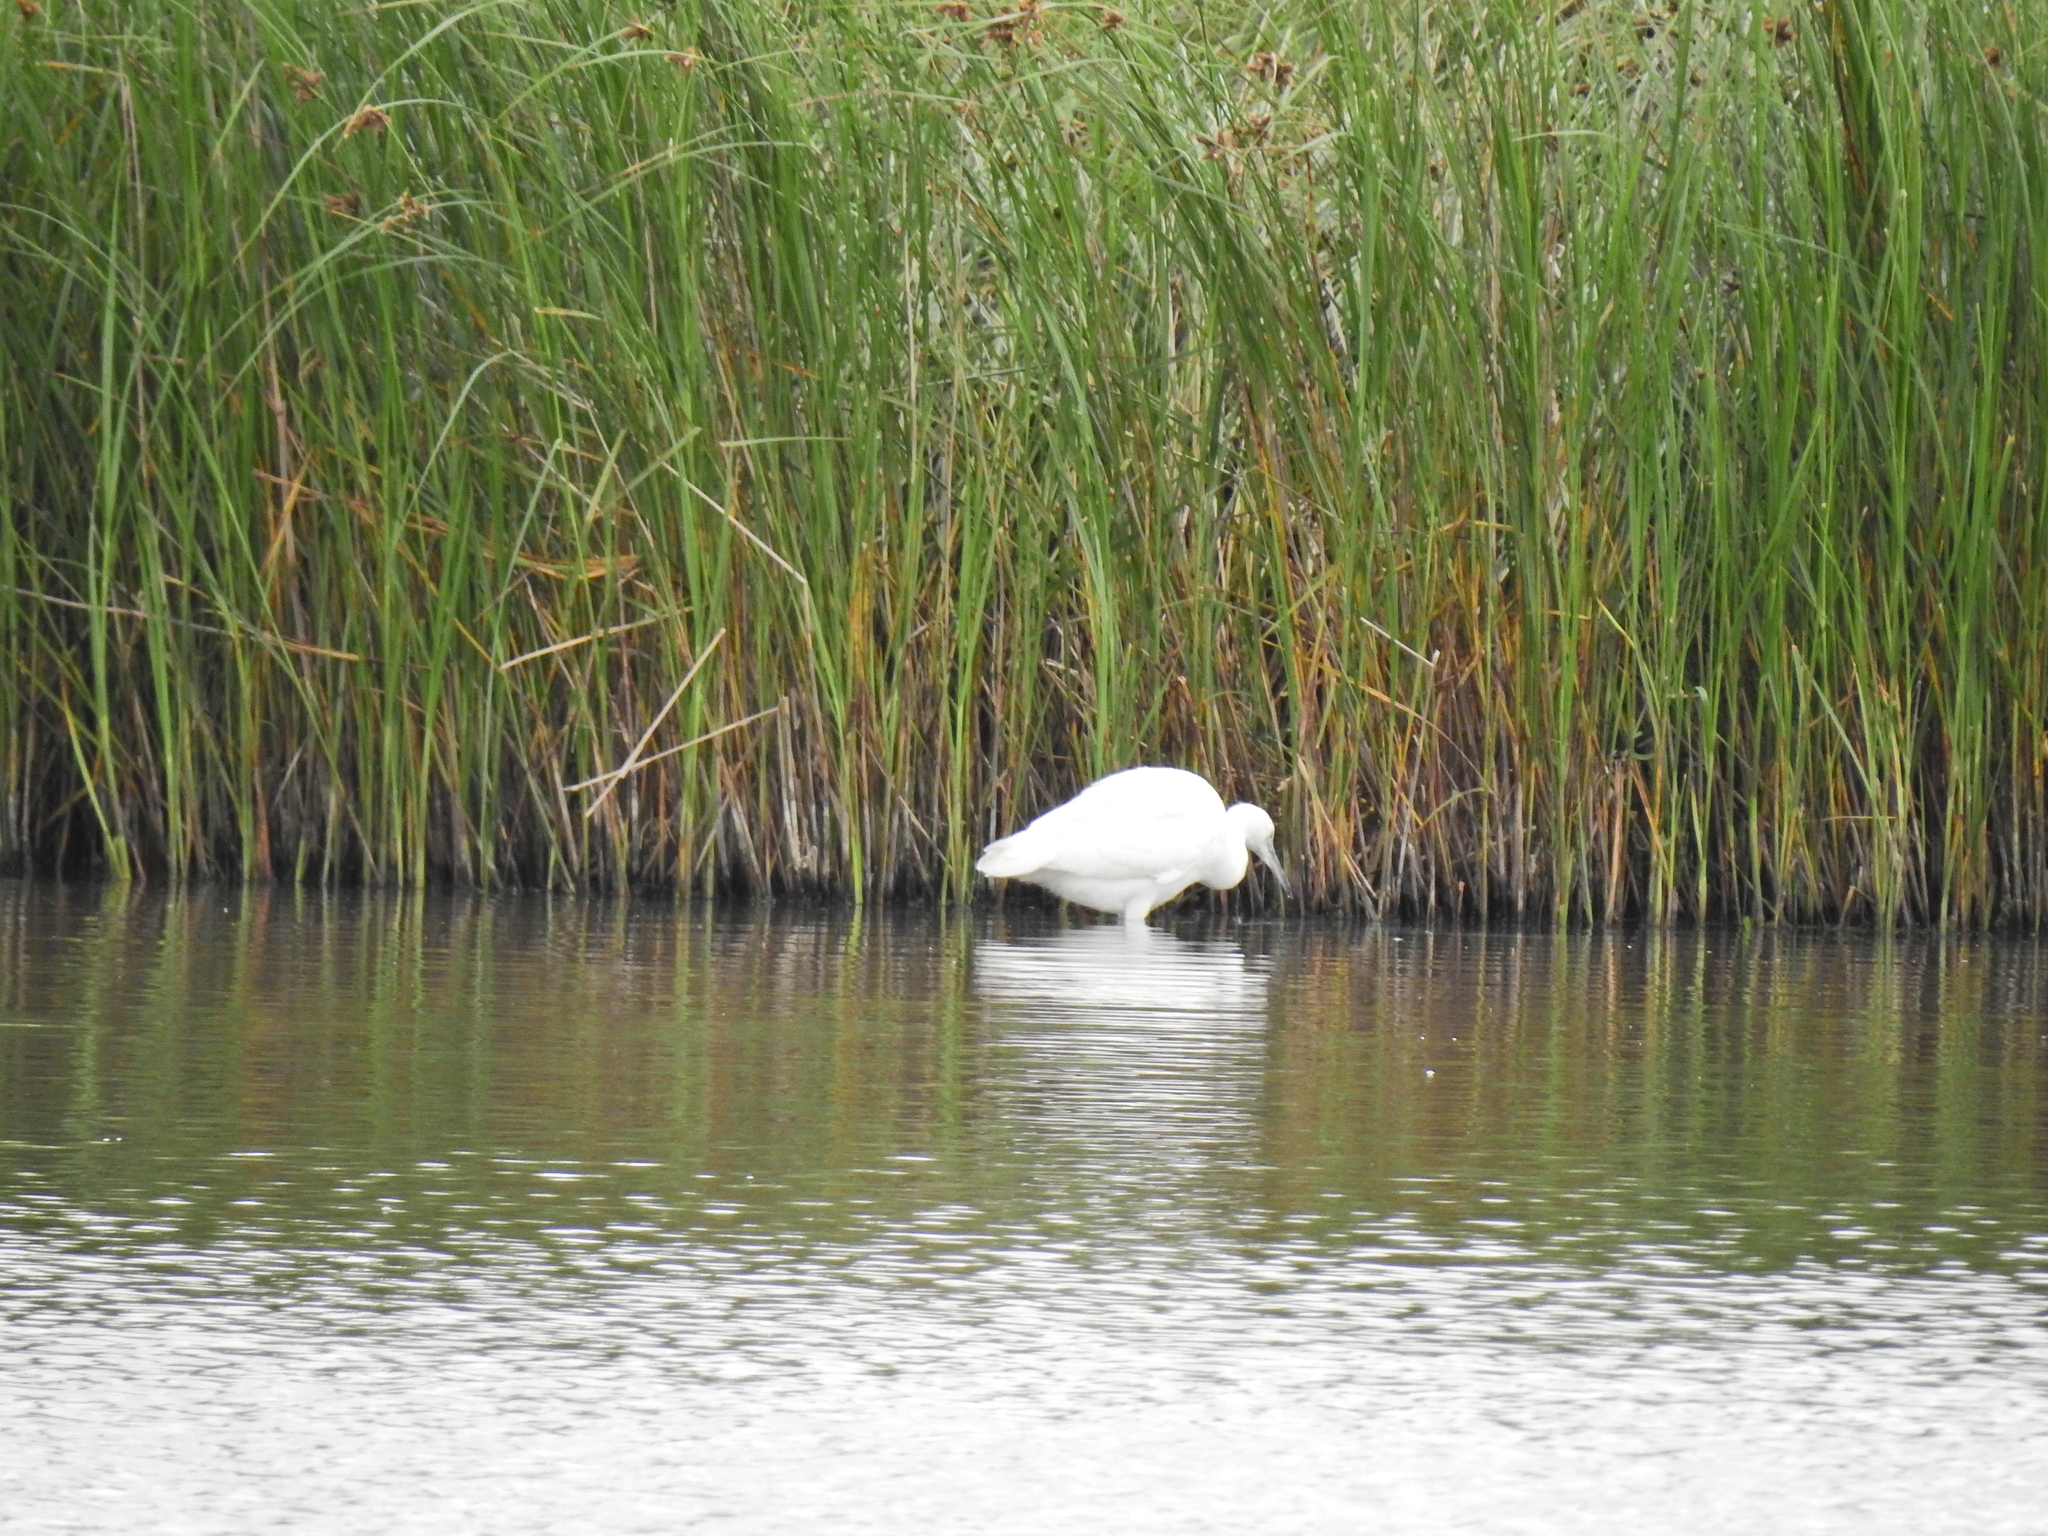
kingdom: Animalia
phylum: Chordata
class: Aves
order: Pelecaniformes
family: Ardeidae
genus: Egretta
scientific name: Egretta garzetta
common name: Little egret
